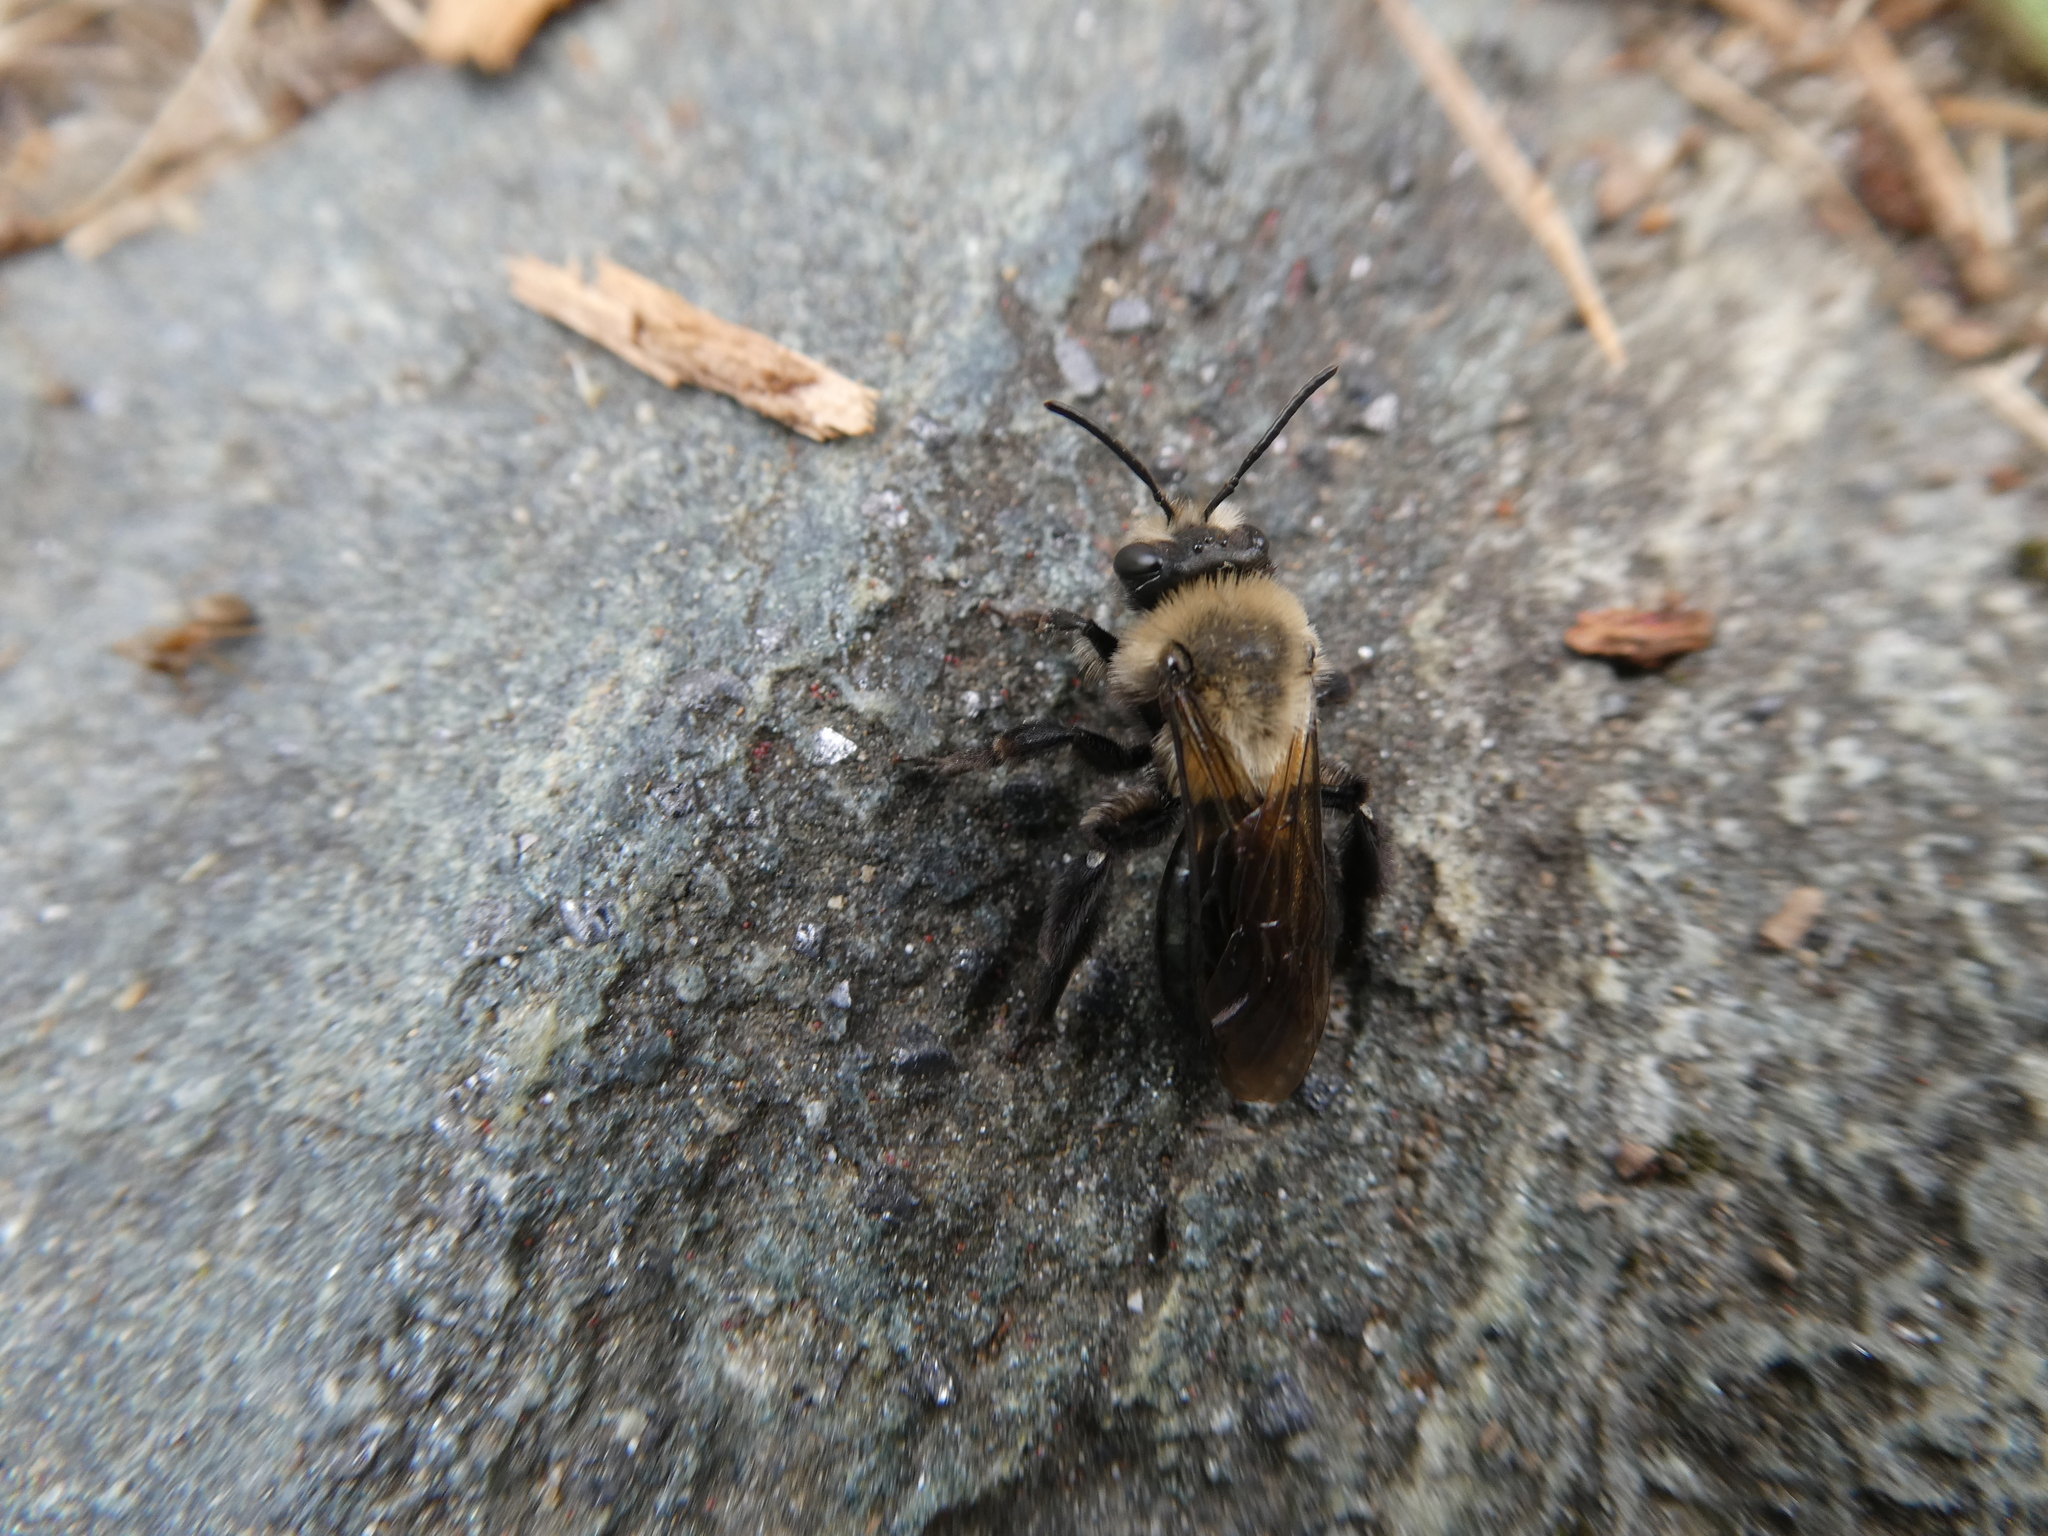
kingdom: Animalia
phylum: Arthropoda
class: Insecta
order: Hymenoptera
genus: Melandrena
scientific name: Melandrena
